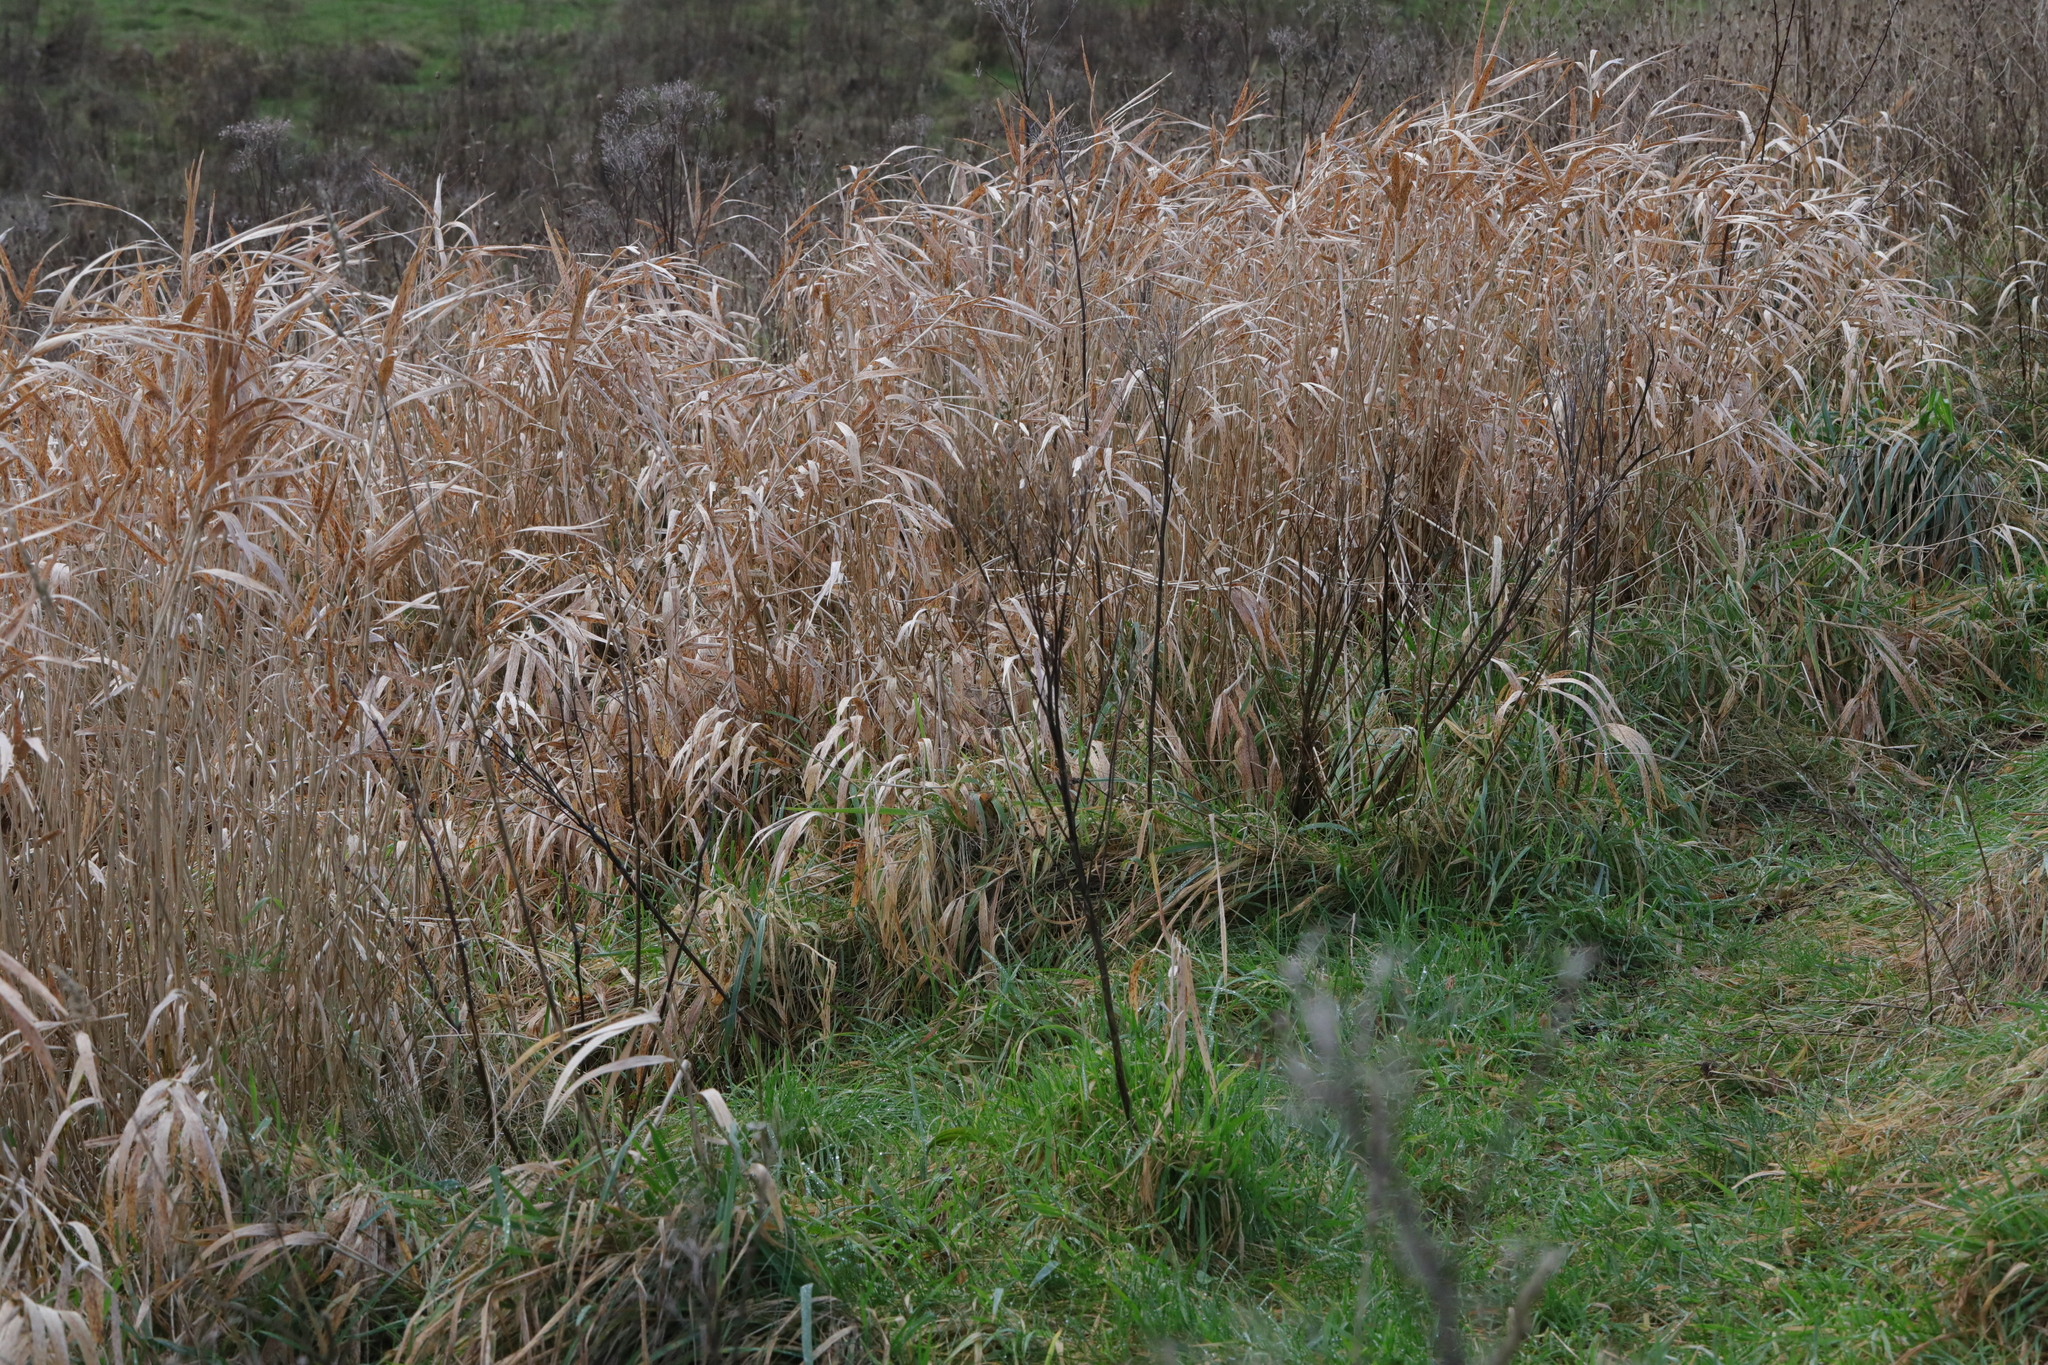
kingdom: Plantae
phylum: Tracheophyta
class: Liliopsida
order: Poales
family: Poaceae
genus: Phalaris
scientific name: Phalaris arundinacea
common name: Reed canary-grass
